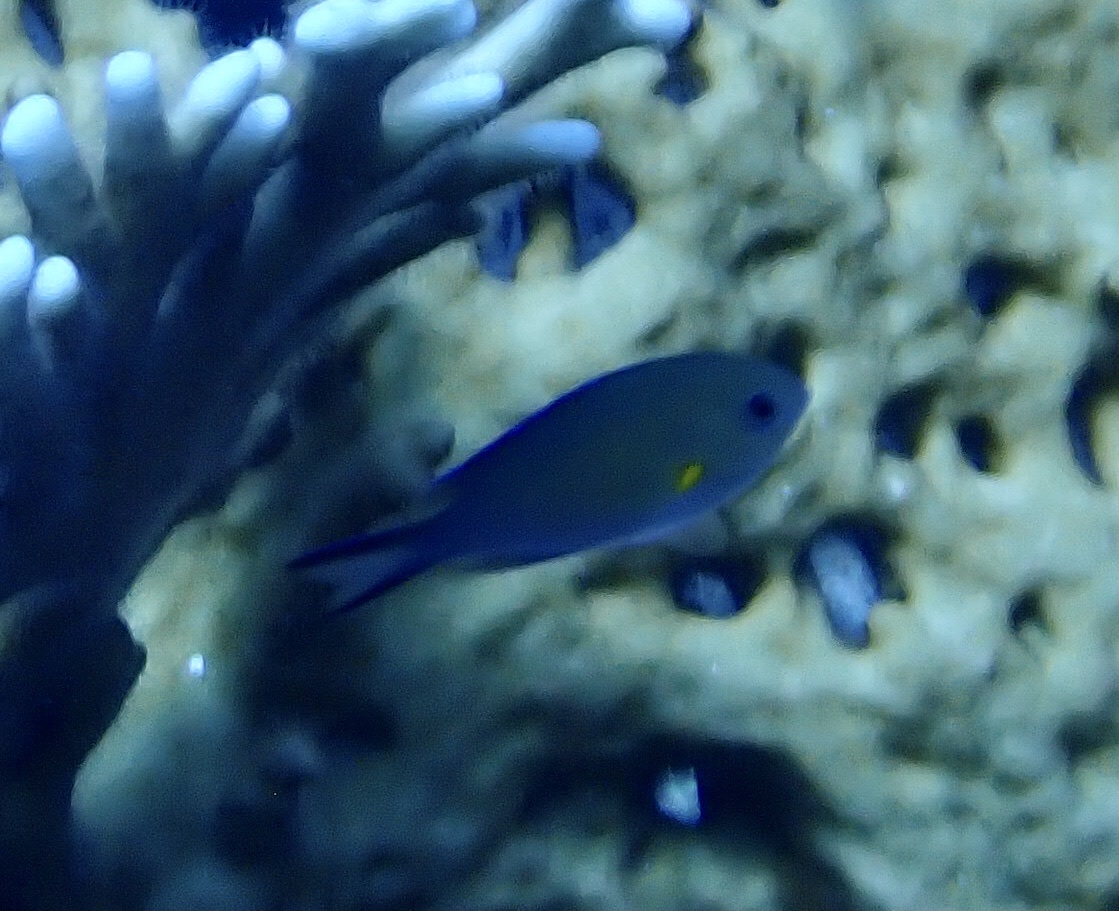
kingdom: Animalia
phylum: Chordata
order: Perciformes
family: Pomacentridae
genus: Chromis
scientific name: Chromis flavaxilla
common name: Arabian chromis
